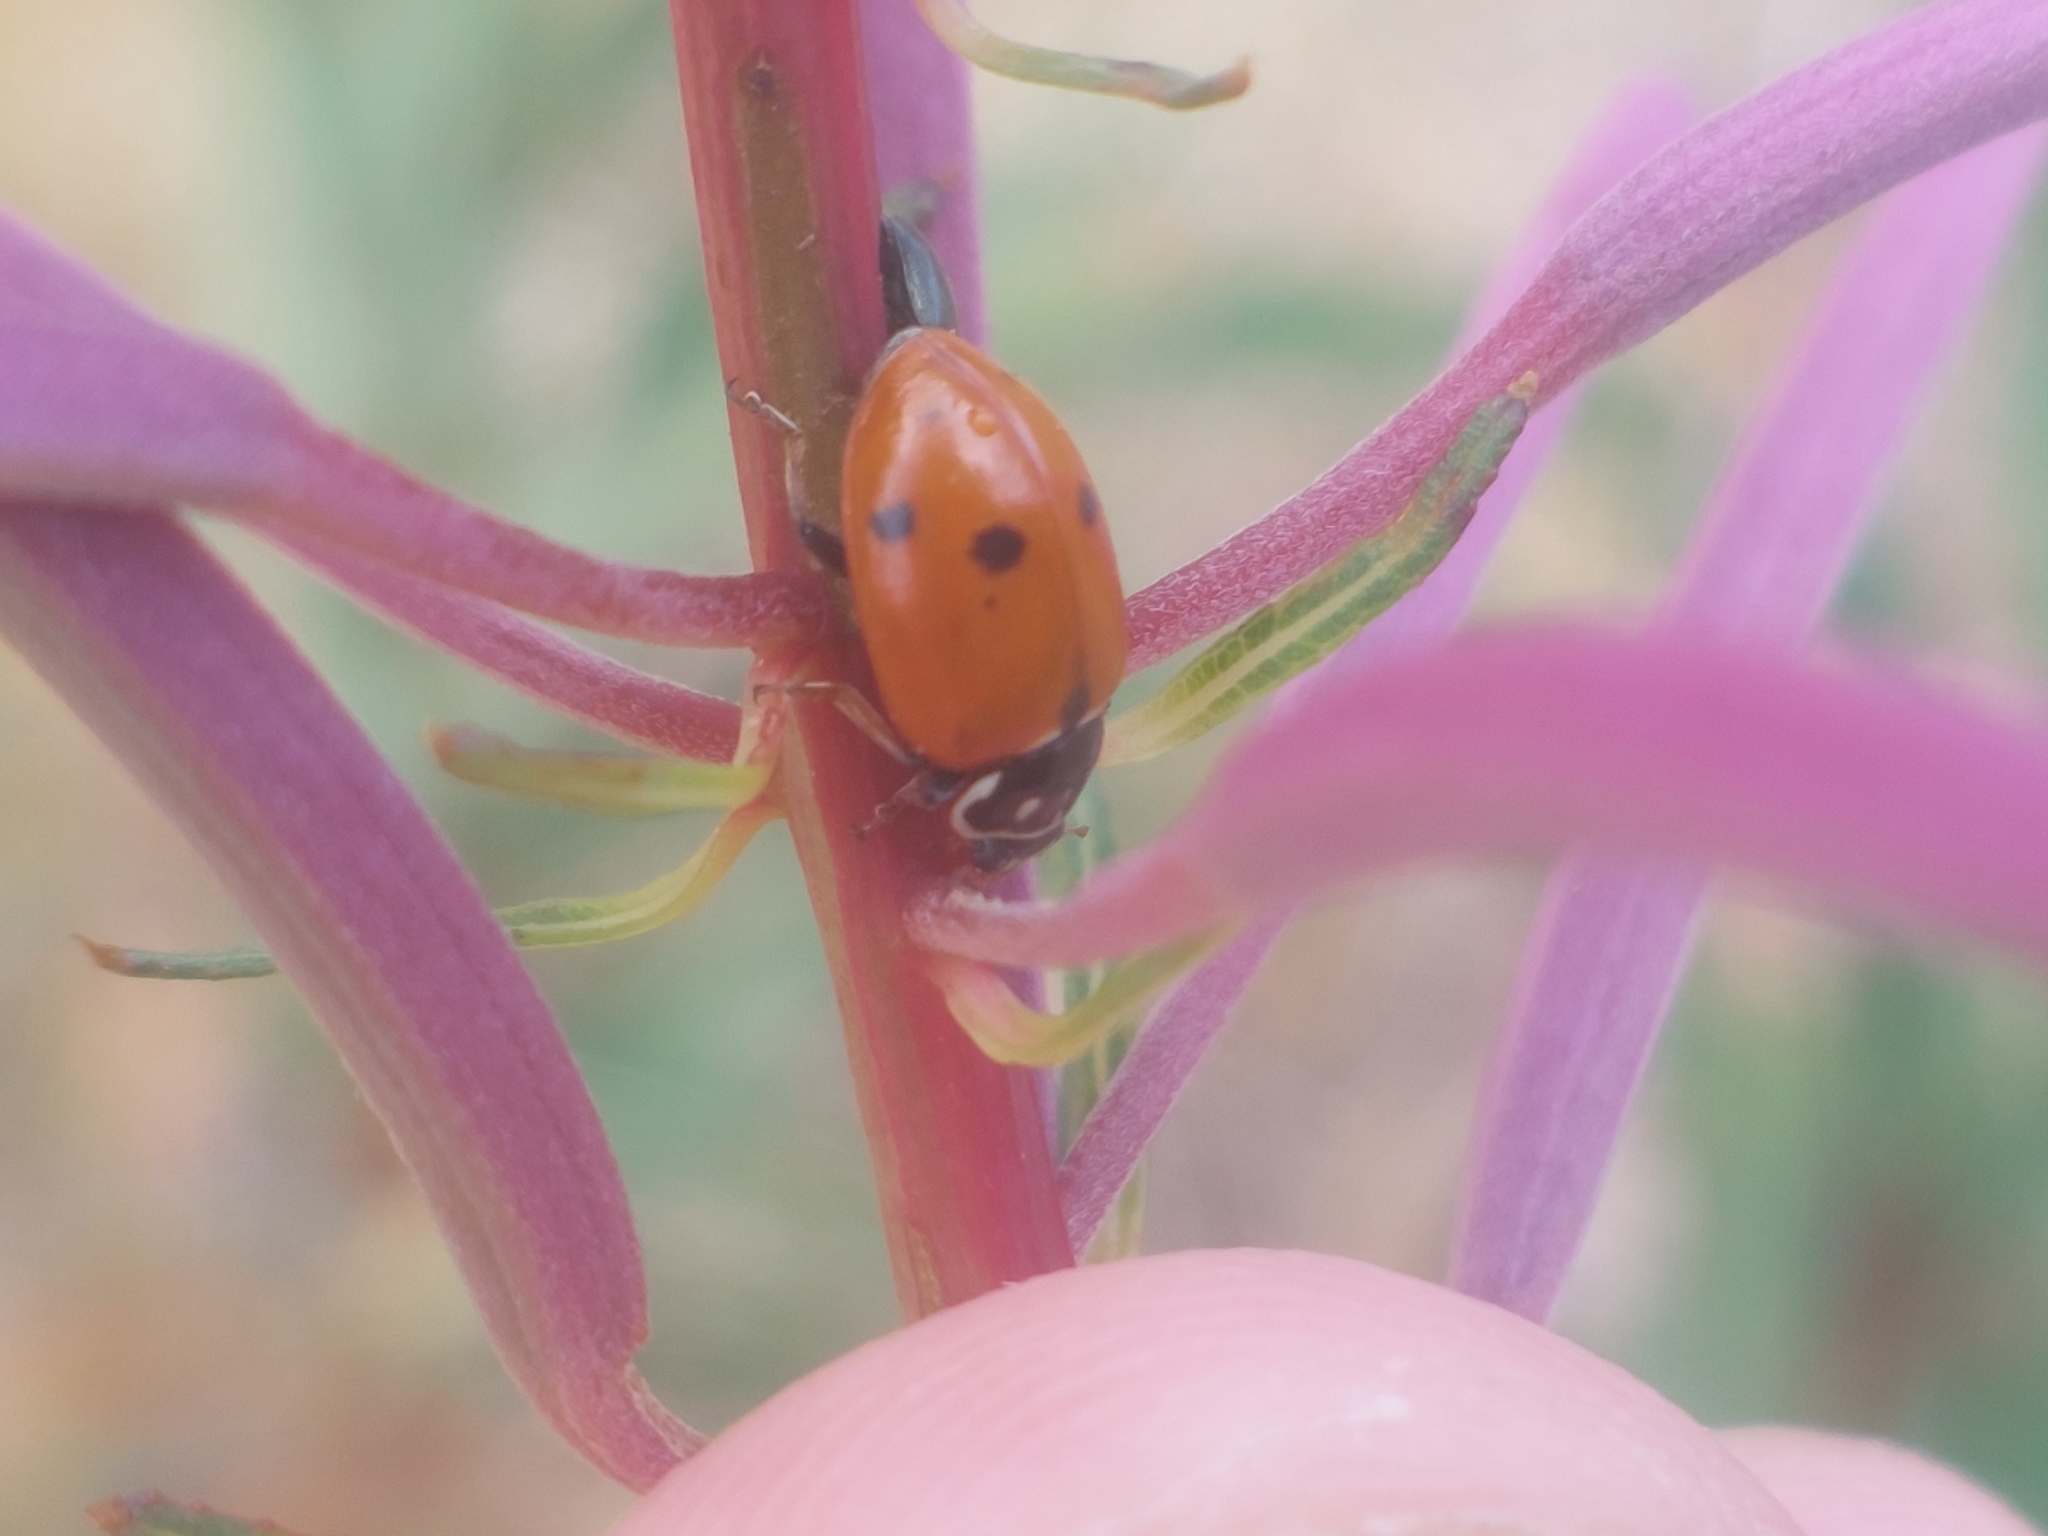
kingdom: Animalia
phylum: Arthropoda
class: Insecta
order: Coleoptera
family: Coccinellidae
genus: Hippodamia
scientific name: Hippodamia variegata
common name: Ladybird beetle
